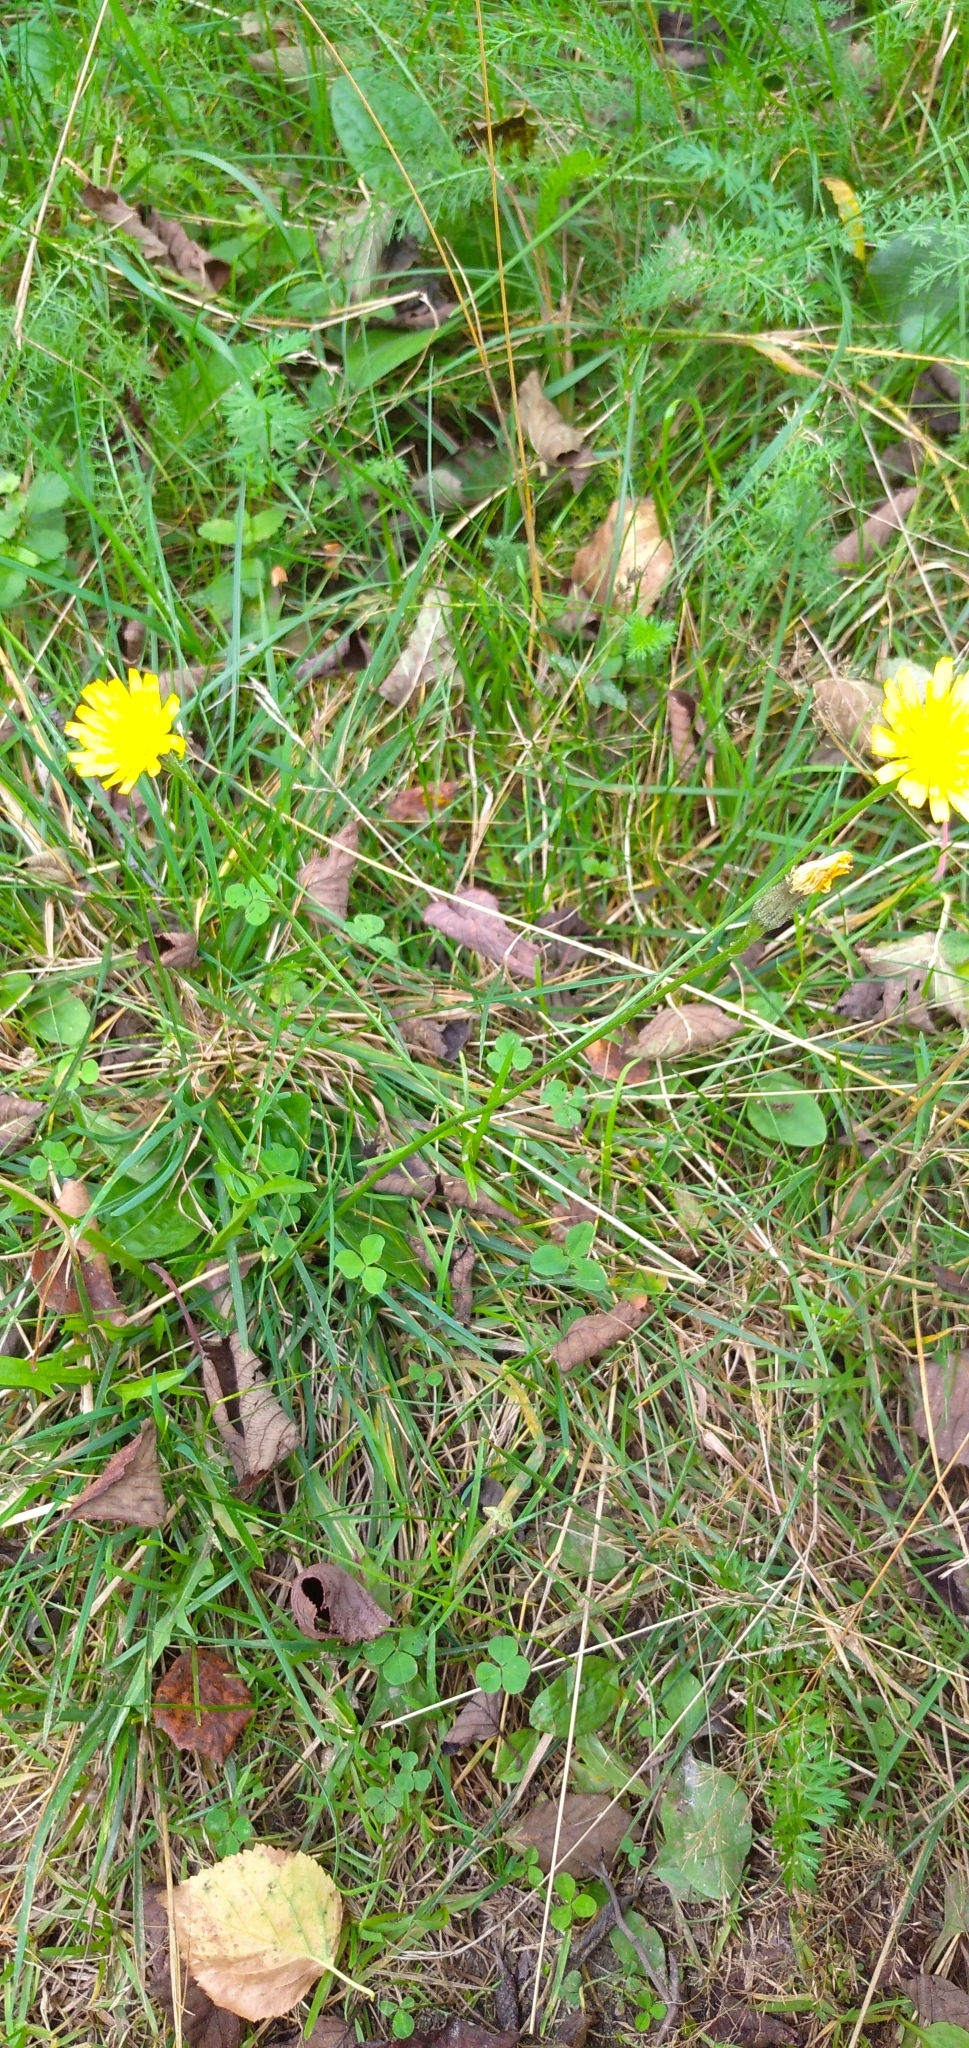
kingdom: Plantae
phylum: Tracheophyta
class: Magnoliopsida
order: Asterales
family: Asteraceae
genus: Scorzoneroides
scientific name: Scorzoneroides autumnalis
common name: Autumn hawkbit
